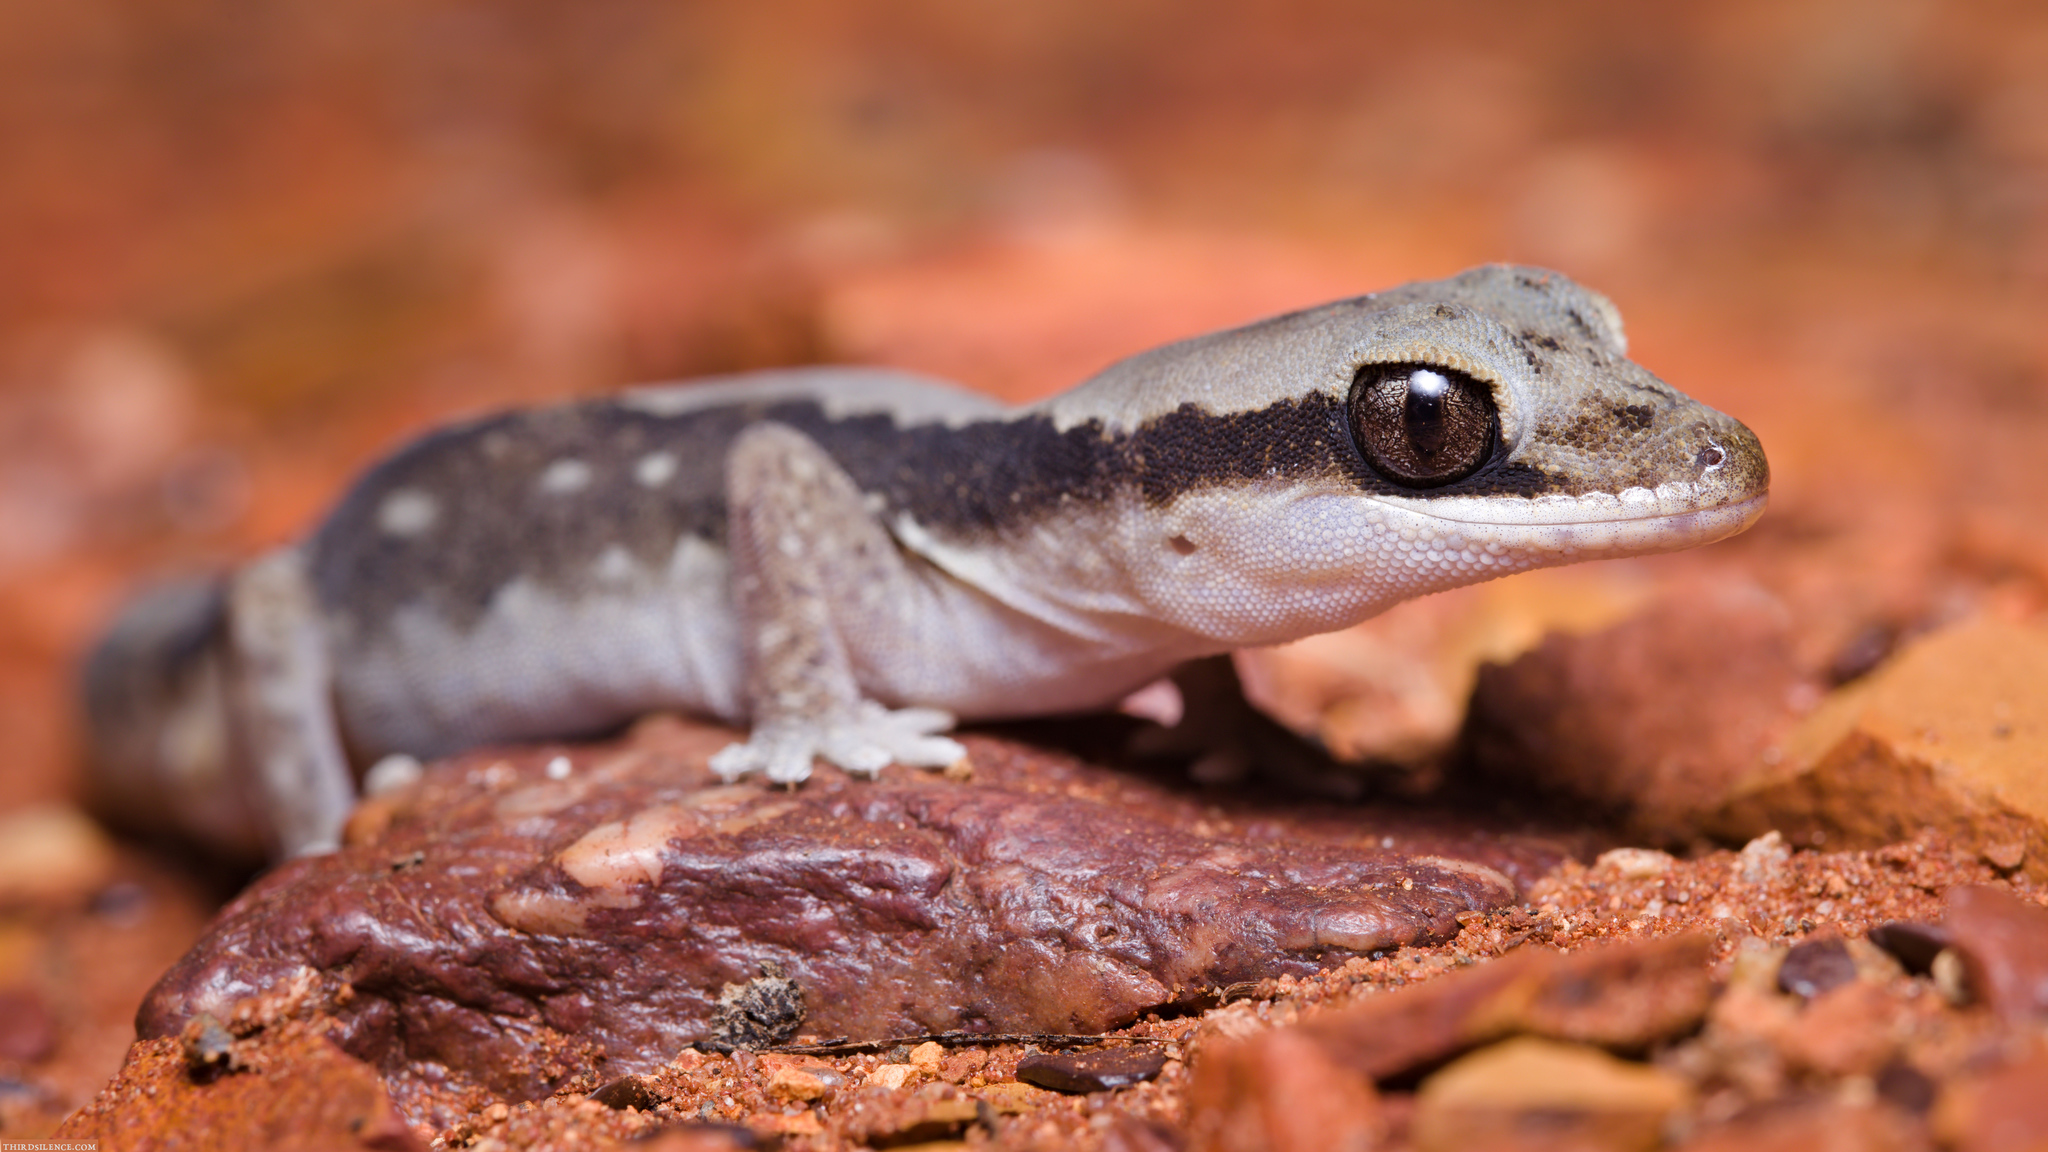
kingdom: Animalia
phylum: Chordata
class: Squamata
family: Diplodactylidae
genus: Diplodactylus
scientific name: Diplodactylus vittatus
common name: Eastern stone gecko
